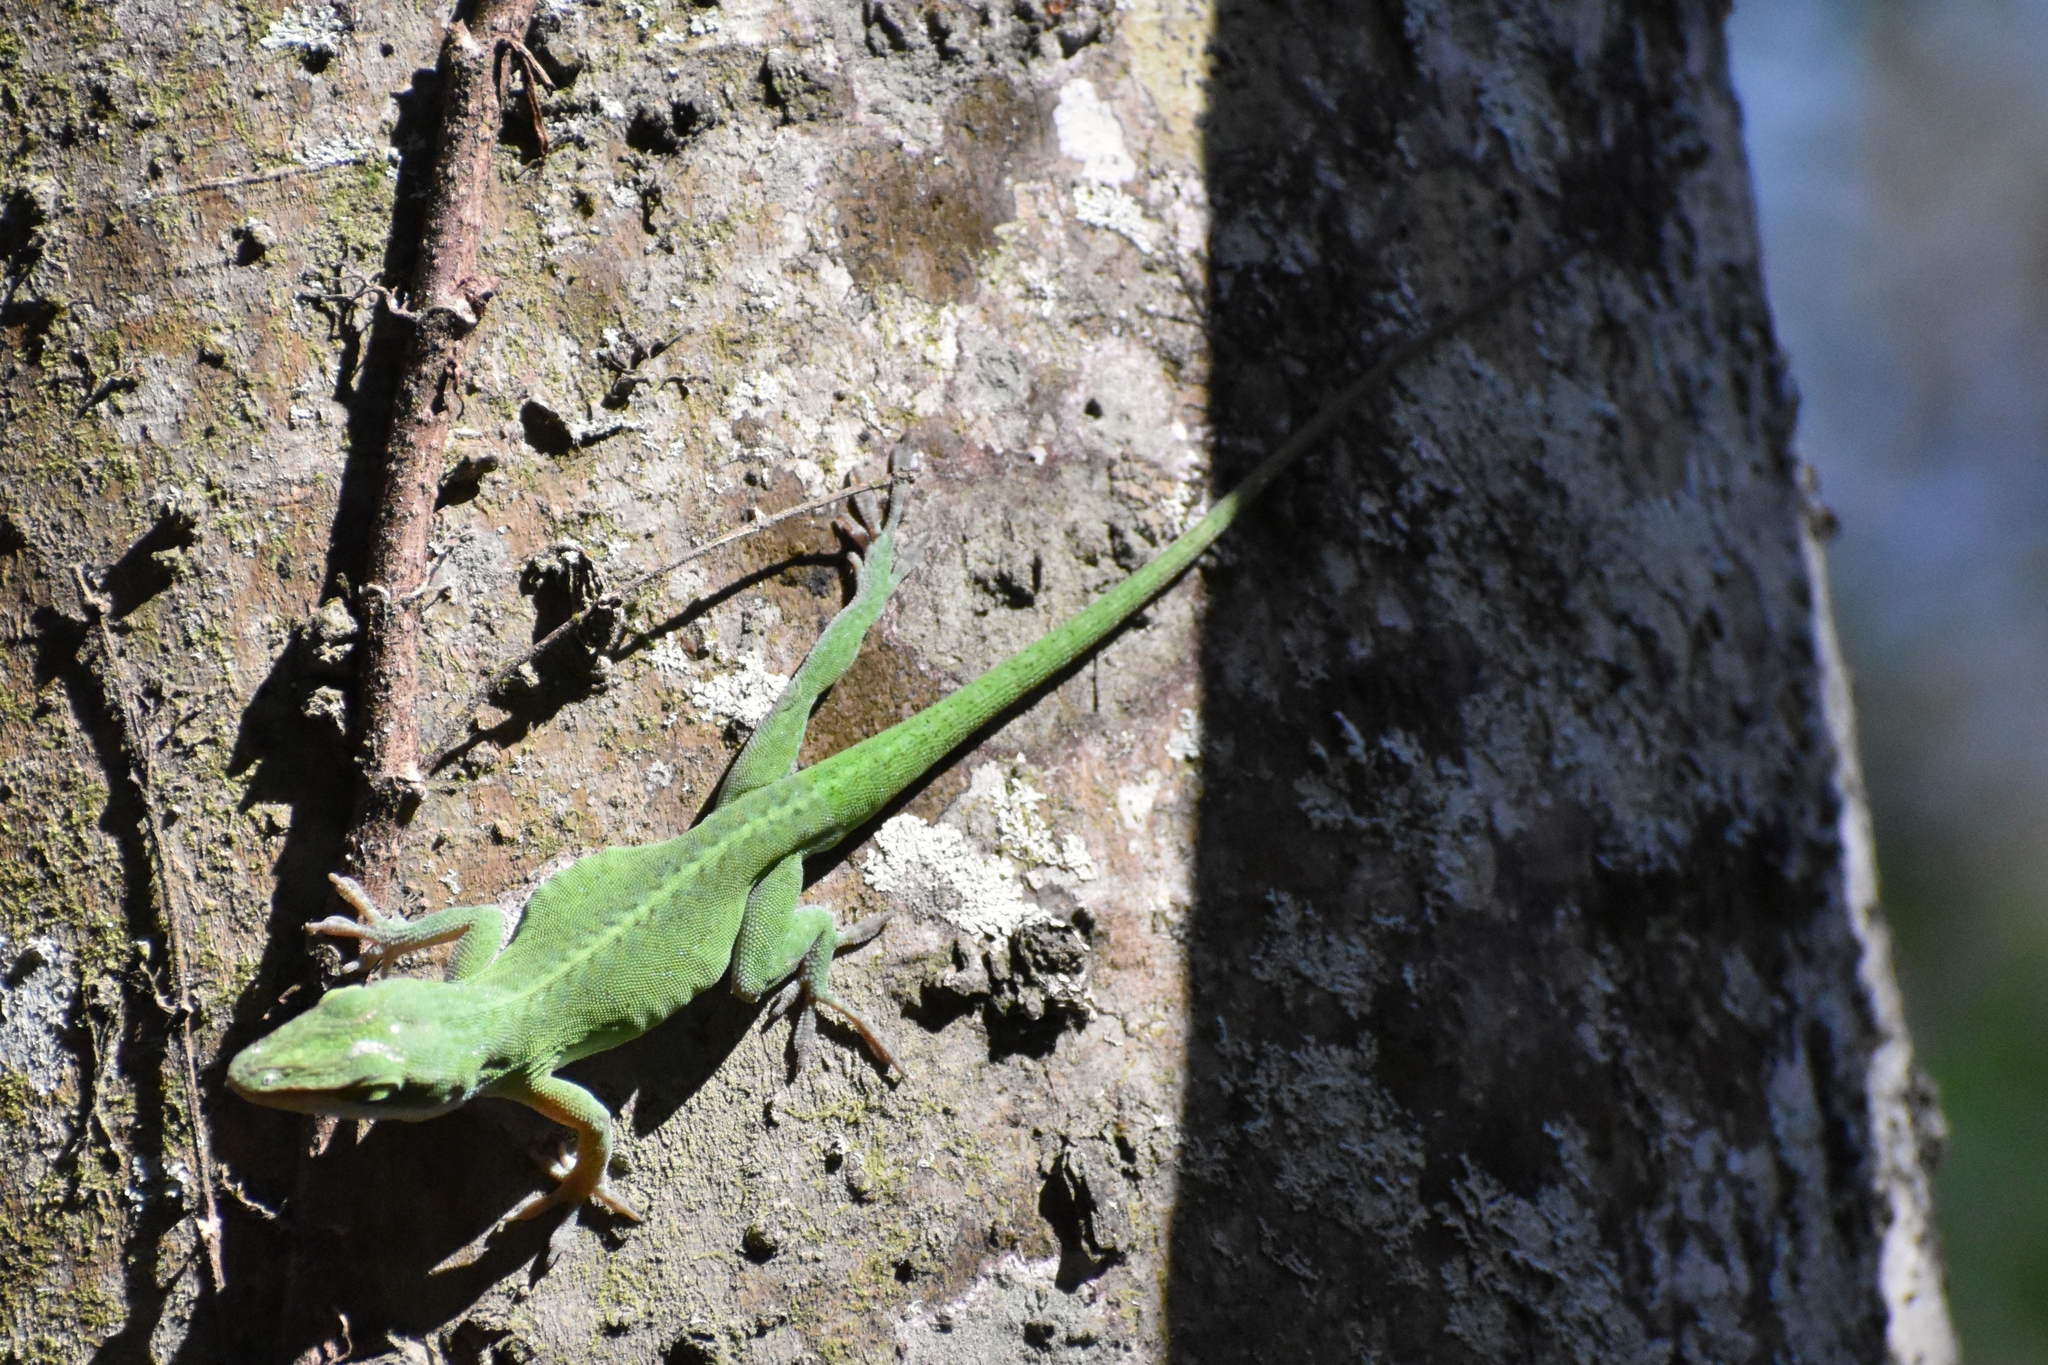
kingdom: Animalia
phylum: Chordata
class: Squamata
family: Dactyloidae
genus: Anolis
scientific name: Anolis carolinensis
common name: Green anole
